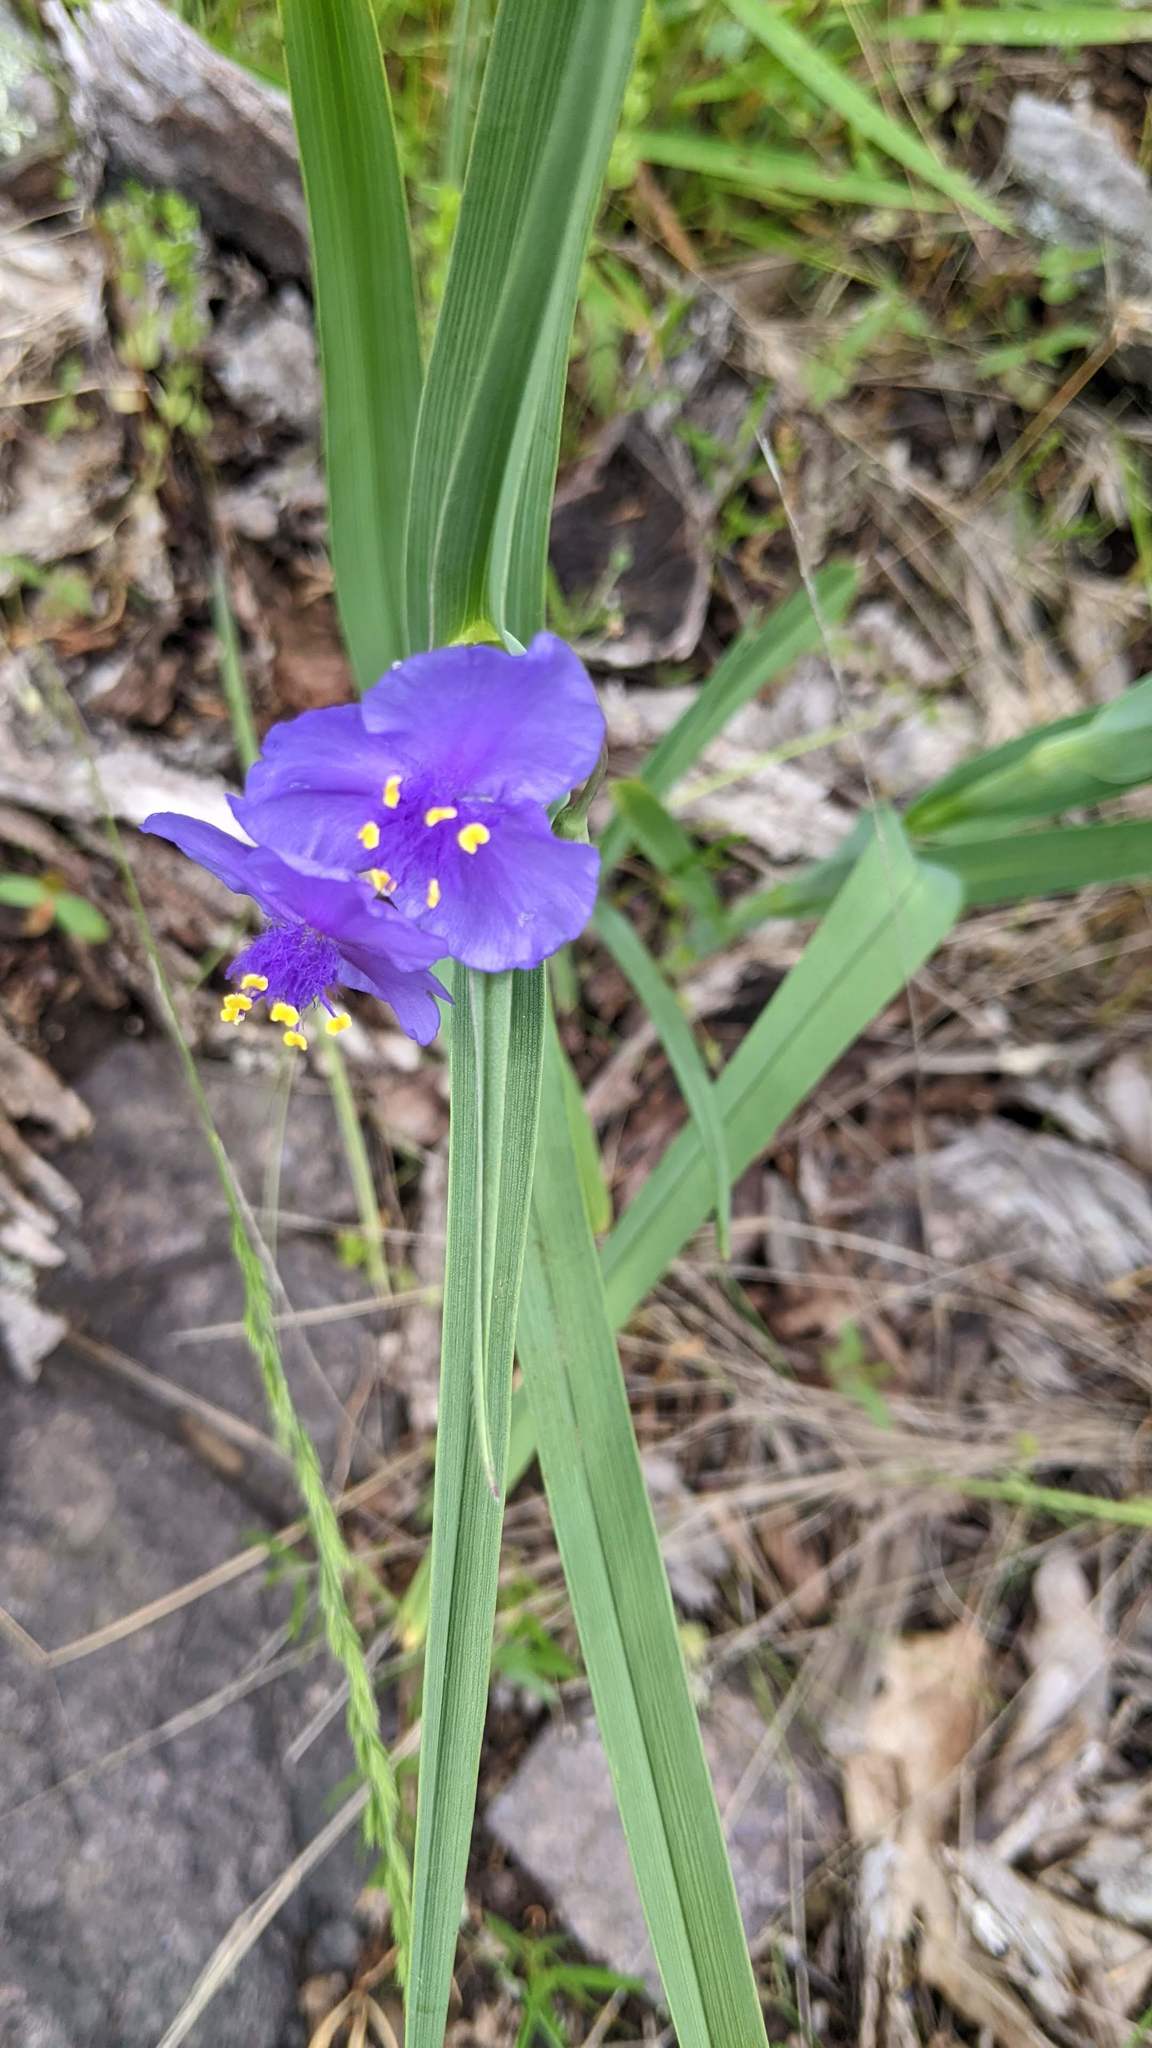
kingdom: Plantae
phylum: Tracheophyta
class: Liliopsida
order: Commelinales
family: Commelinaceae
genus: Tradescantia
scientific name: Tradescantia virginiana
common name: Spiderwort
